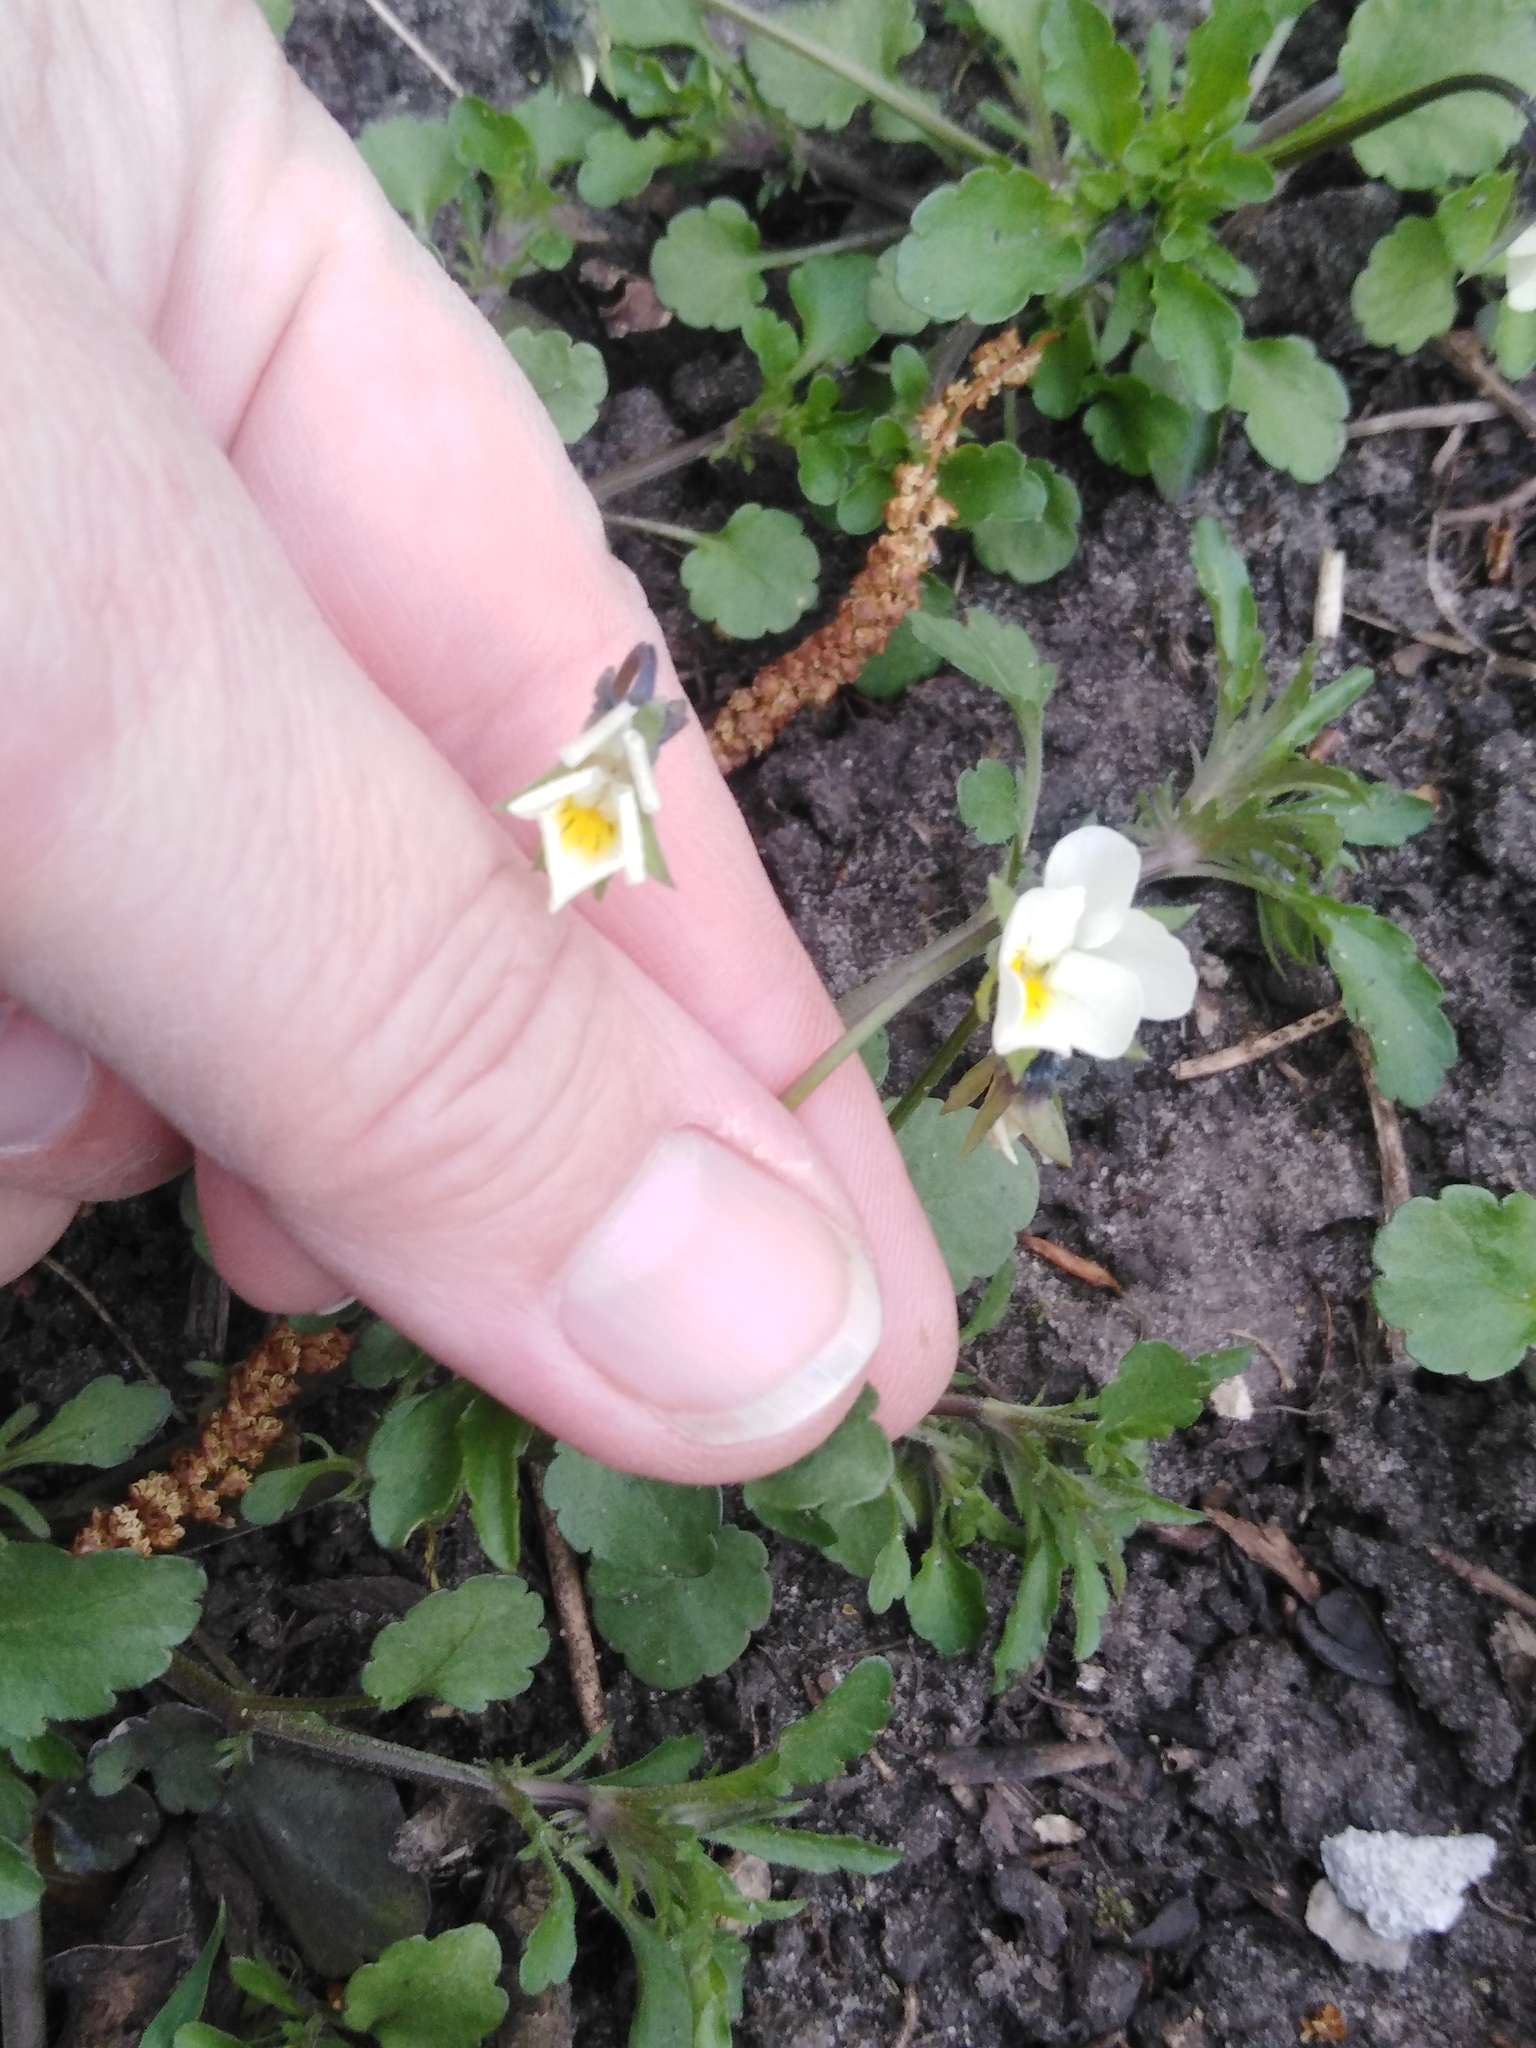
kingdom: Plantae
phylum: Tracheophyta
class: Magnoliopsida
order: Malpighiales
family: Violaceae
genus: Viola
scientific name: Viola arvensis
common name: Field pansy
